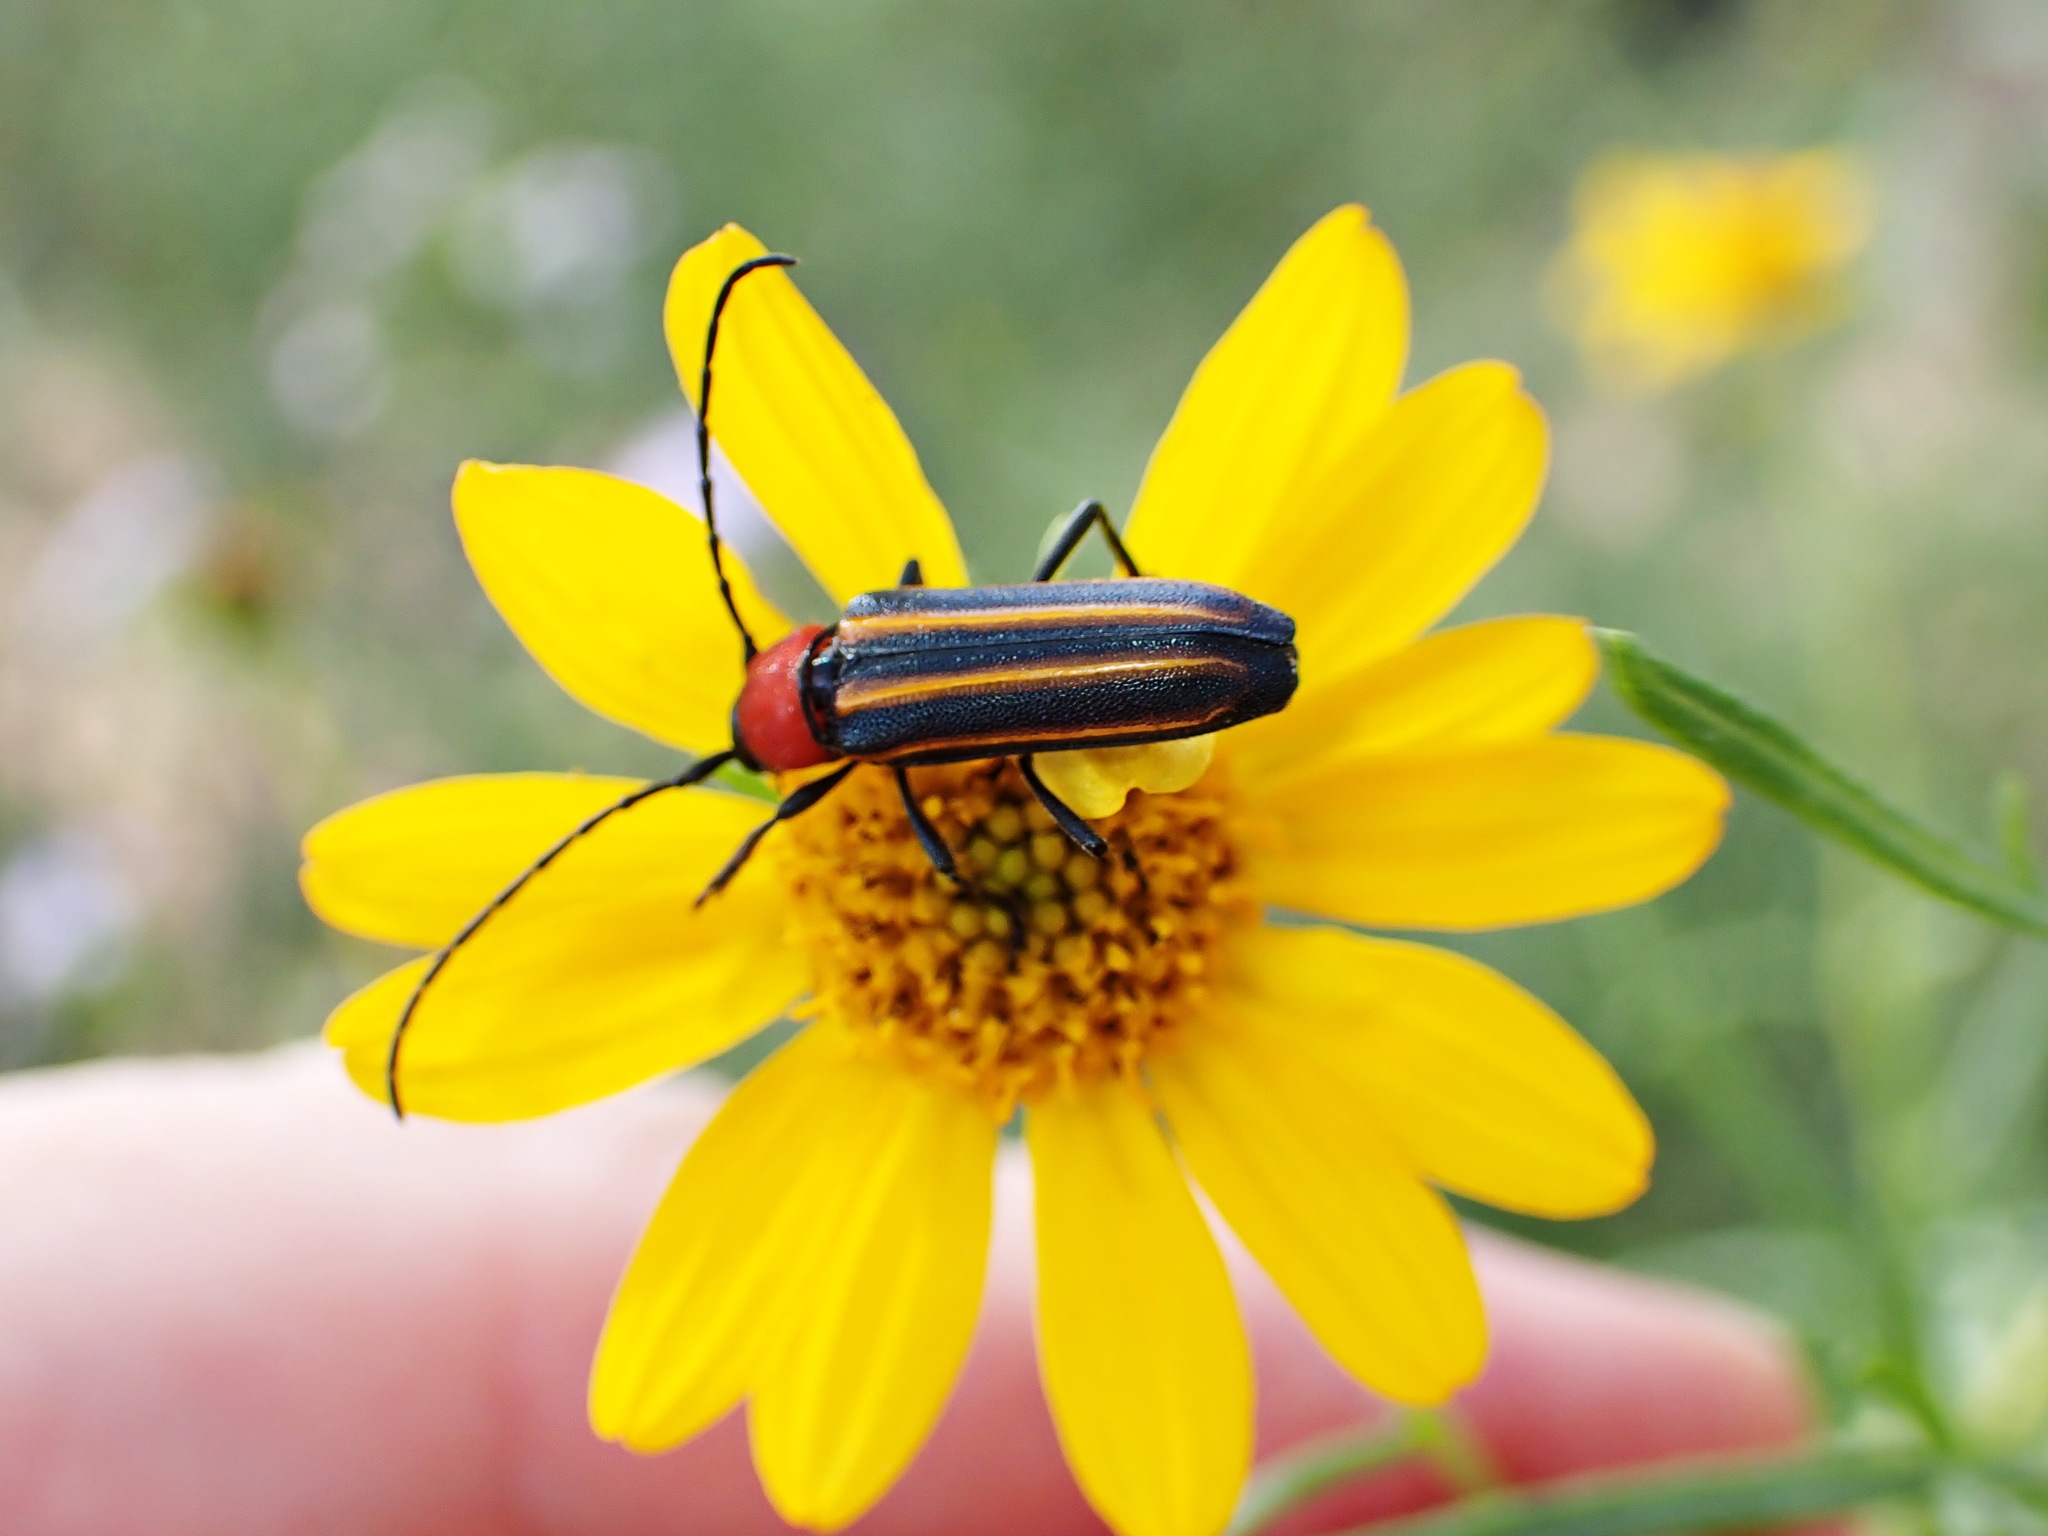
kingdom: Animalia
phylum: Arthropoda
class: Insecta
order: Coleoptera
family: Cerambycidae
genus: Mannophorus
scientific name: Mannophorus laetus
